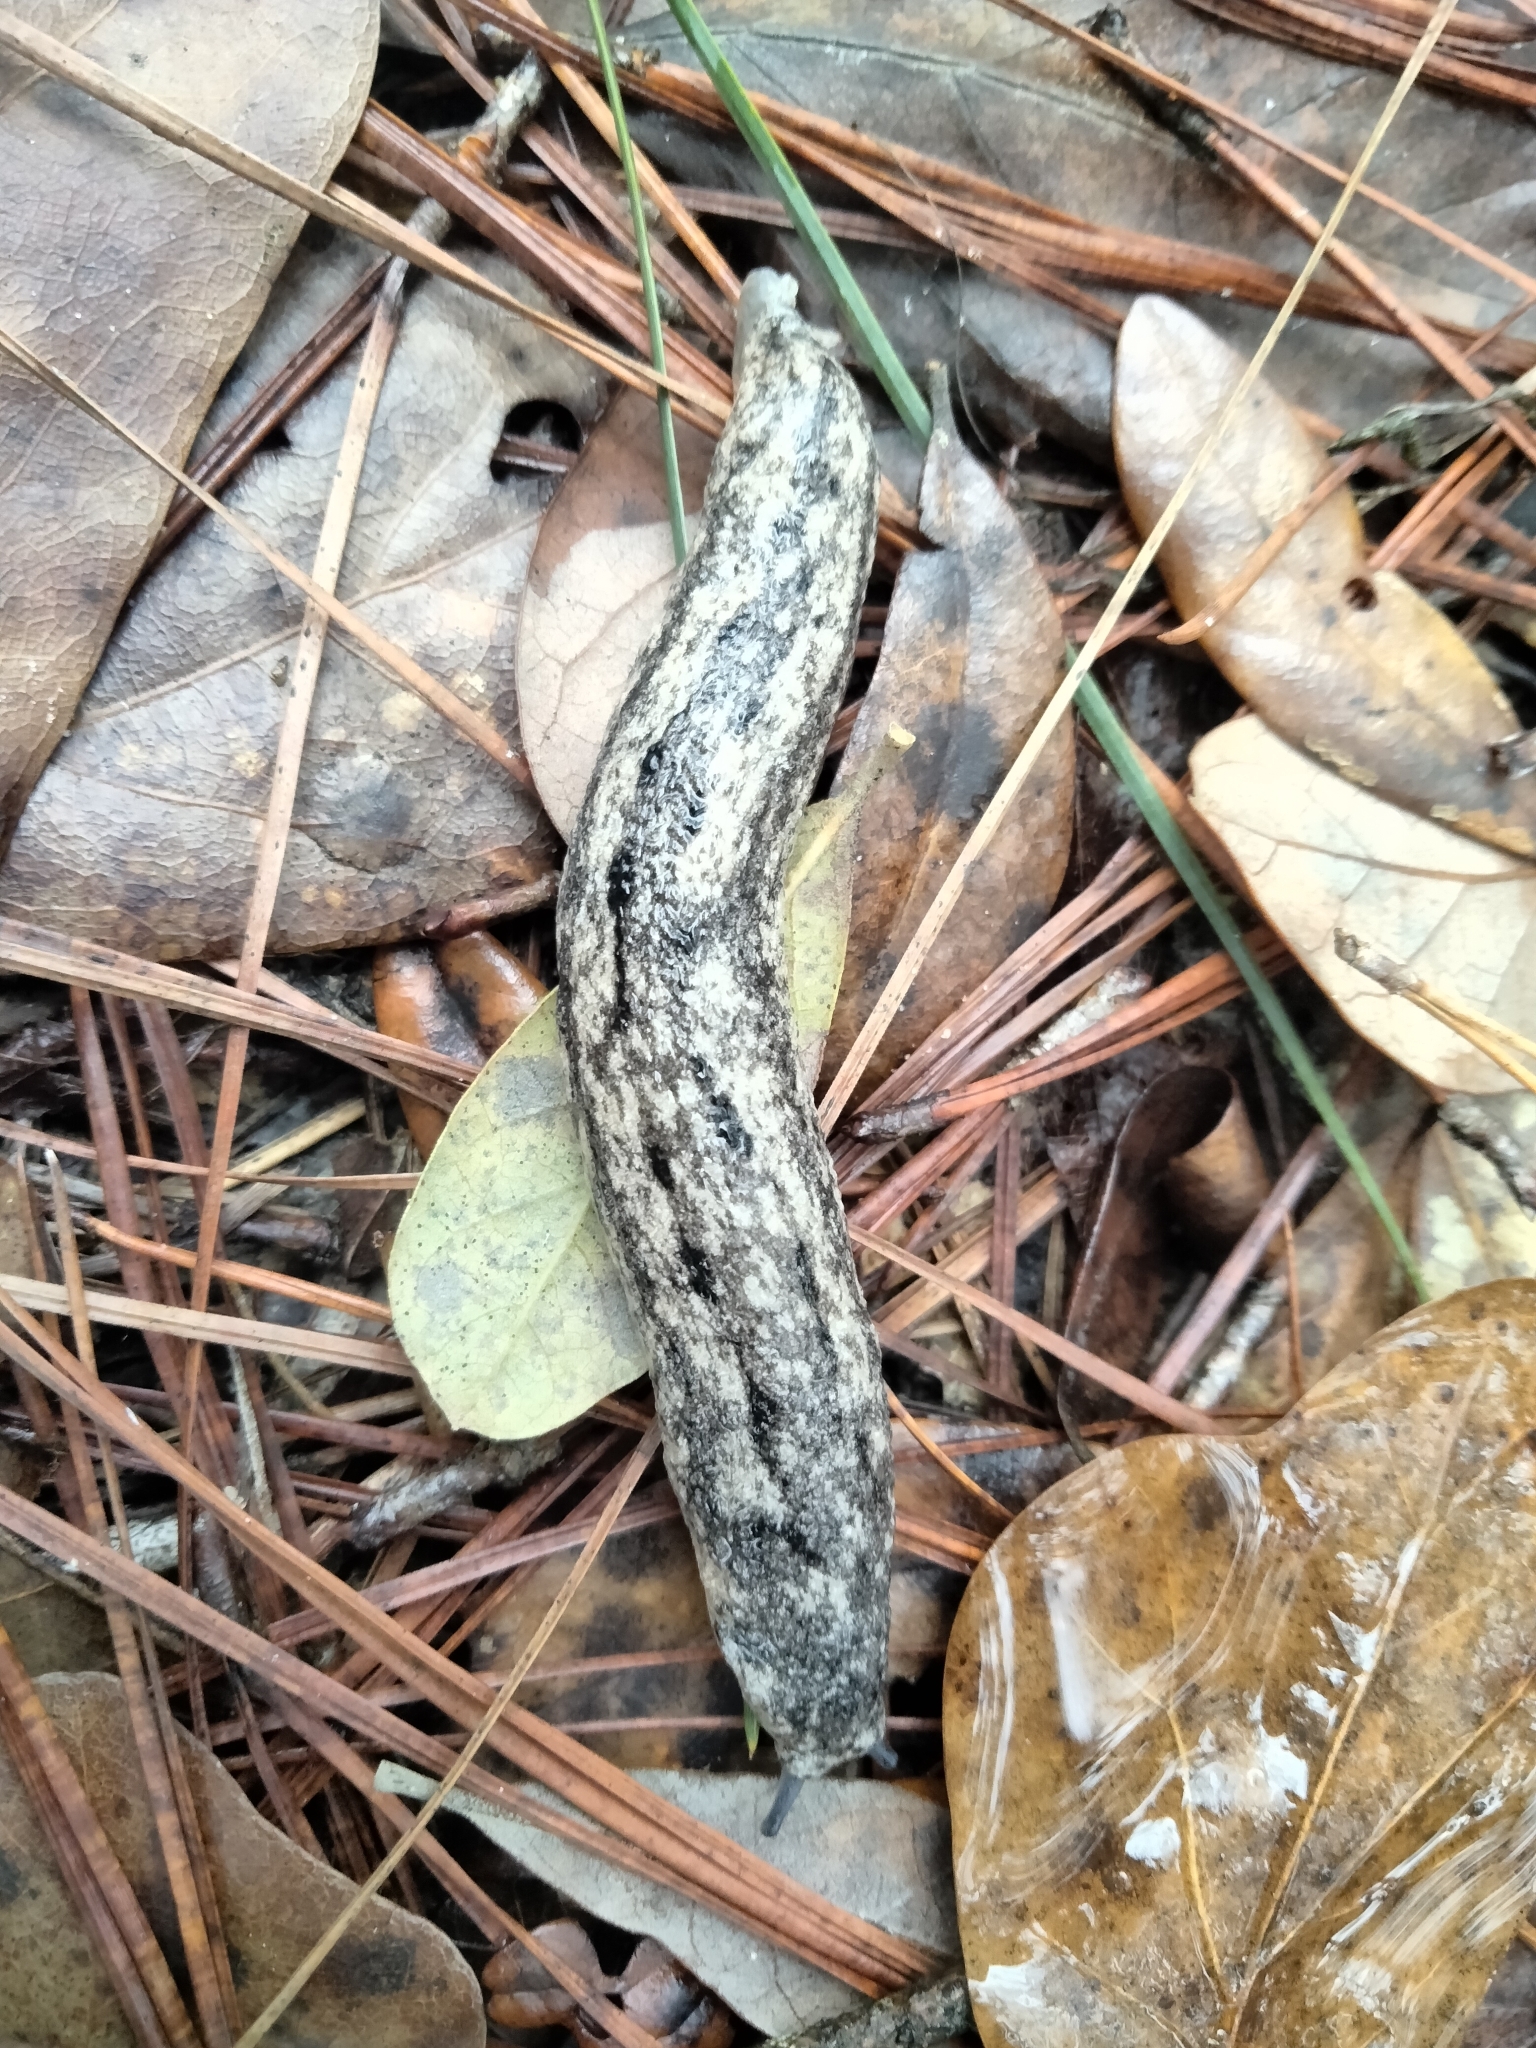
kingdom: Animalia
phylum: Mollusca
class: Gastropoda
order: Stylommatophora
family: Philomycidae
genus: Philomycus
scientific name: Philomycus carolinianus
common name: Carolina mantleslug
